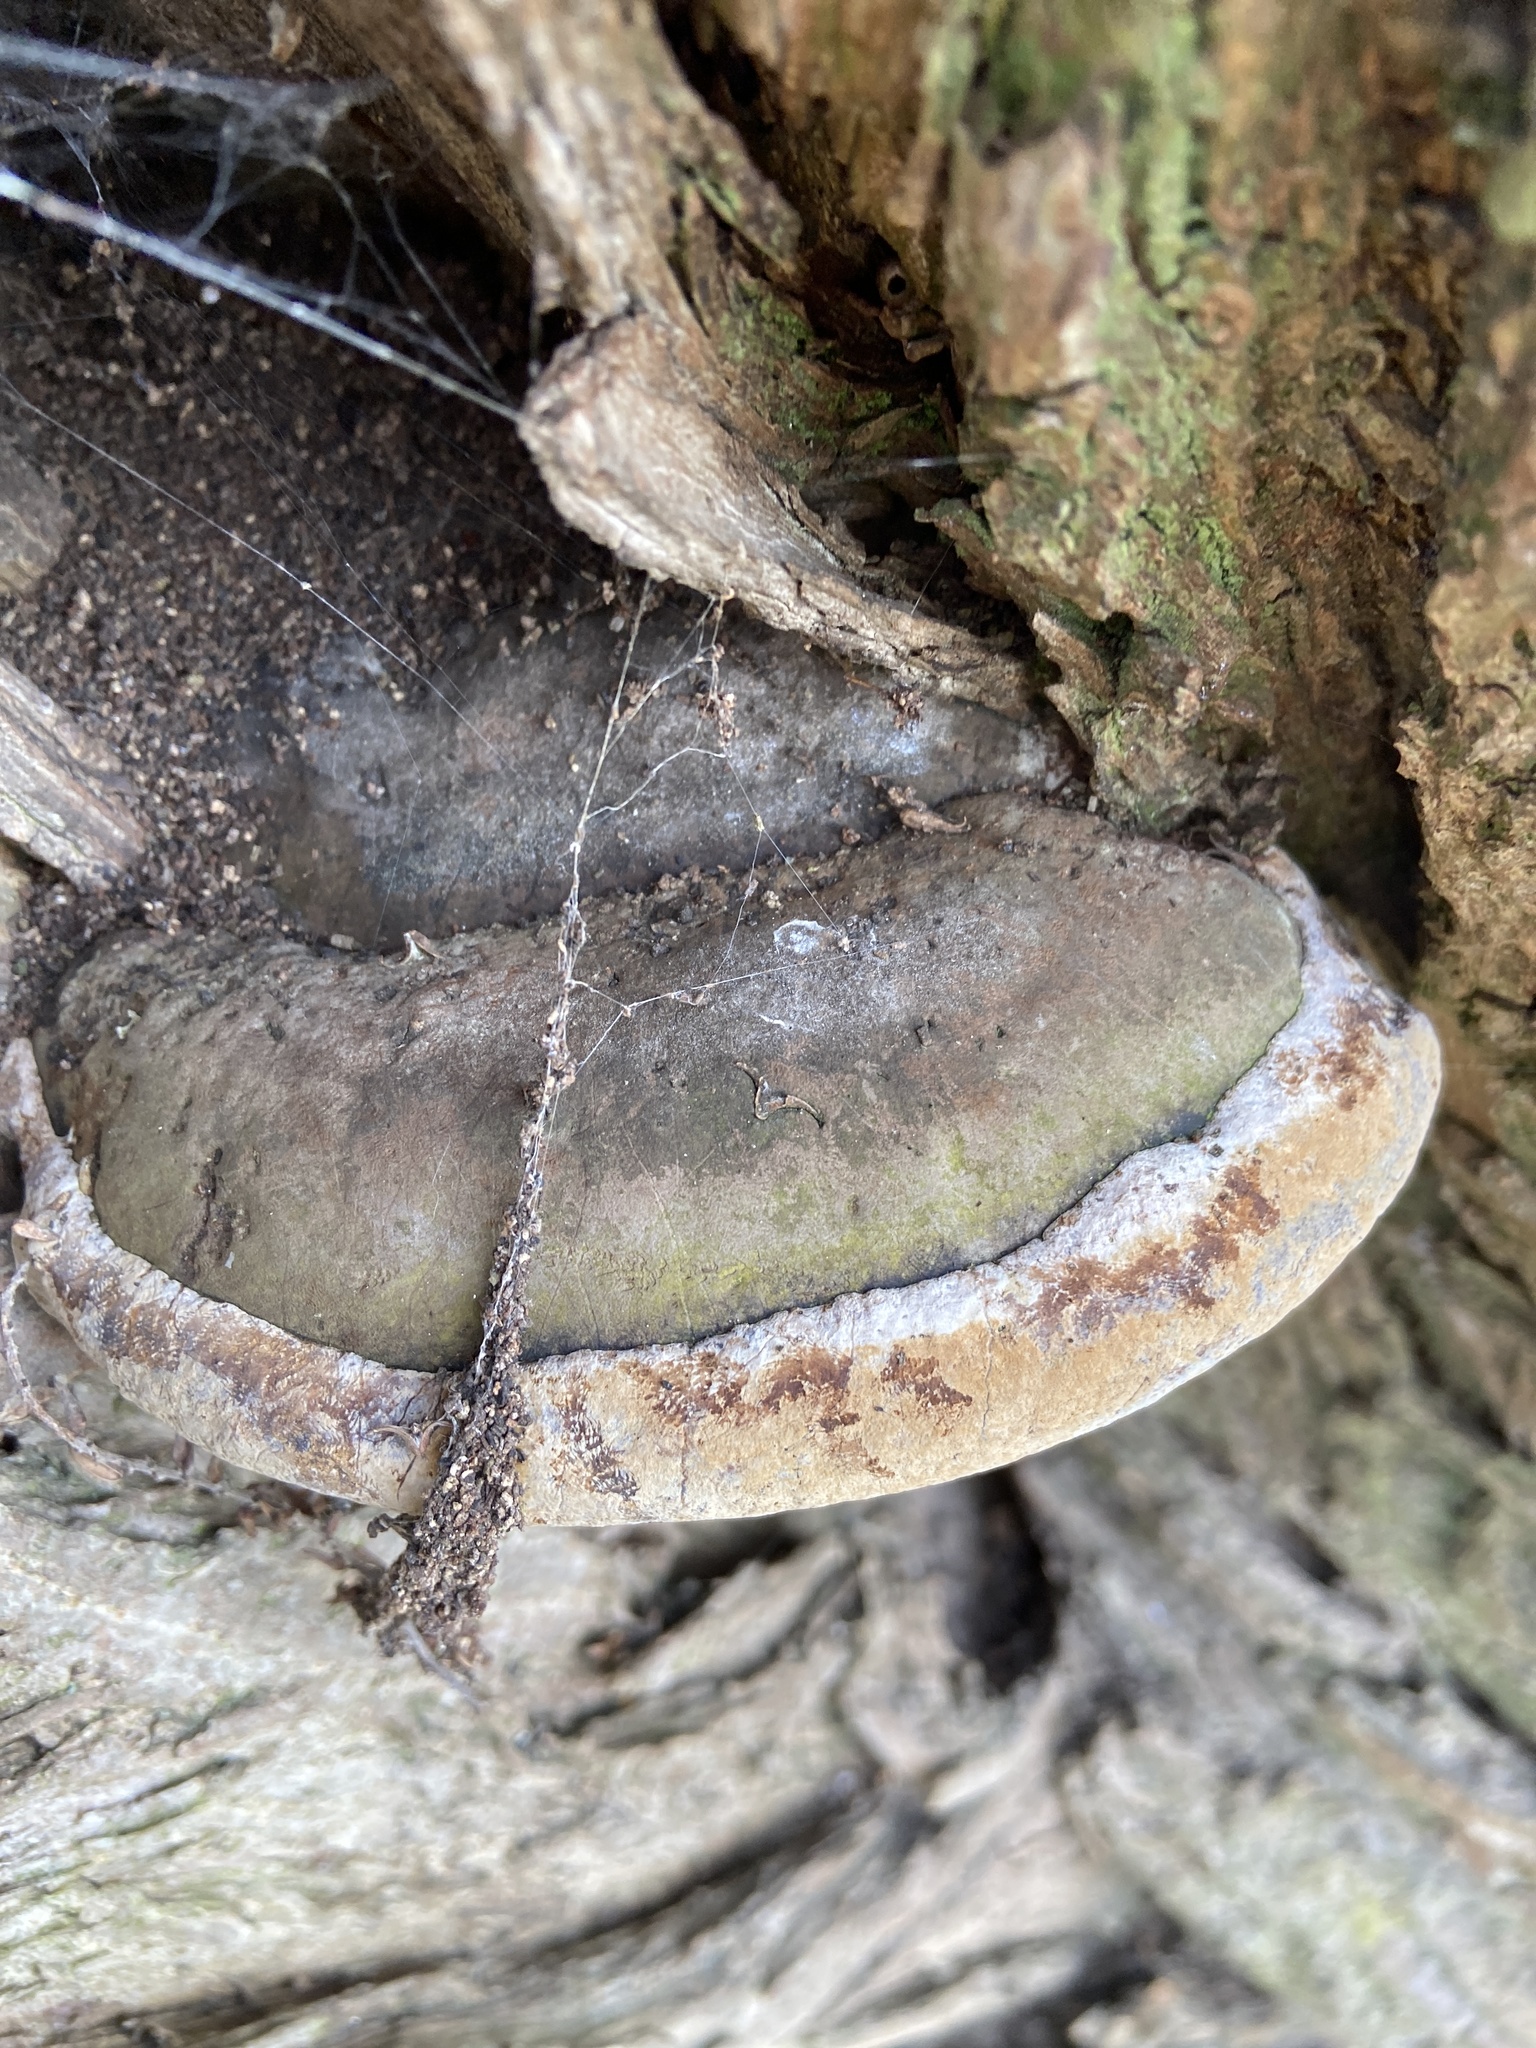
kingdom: Fungi
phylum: Basidiomycota
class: Agaricomycetes
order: Hymenochaetales
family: Hymenochaetaceae
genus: Phellinus
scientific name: Phellinus igniarius
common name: Willow bracket
